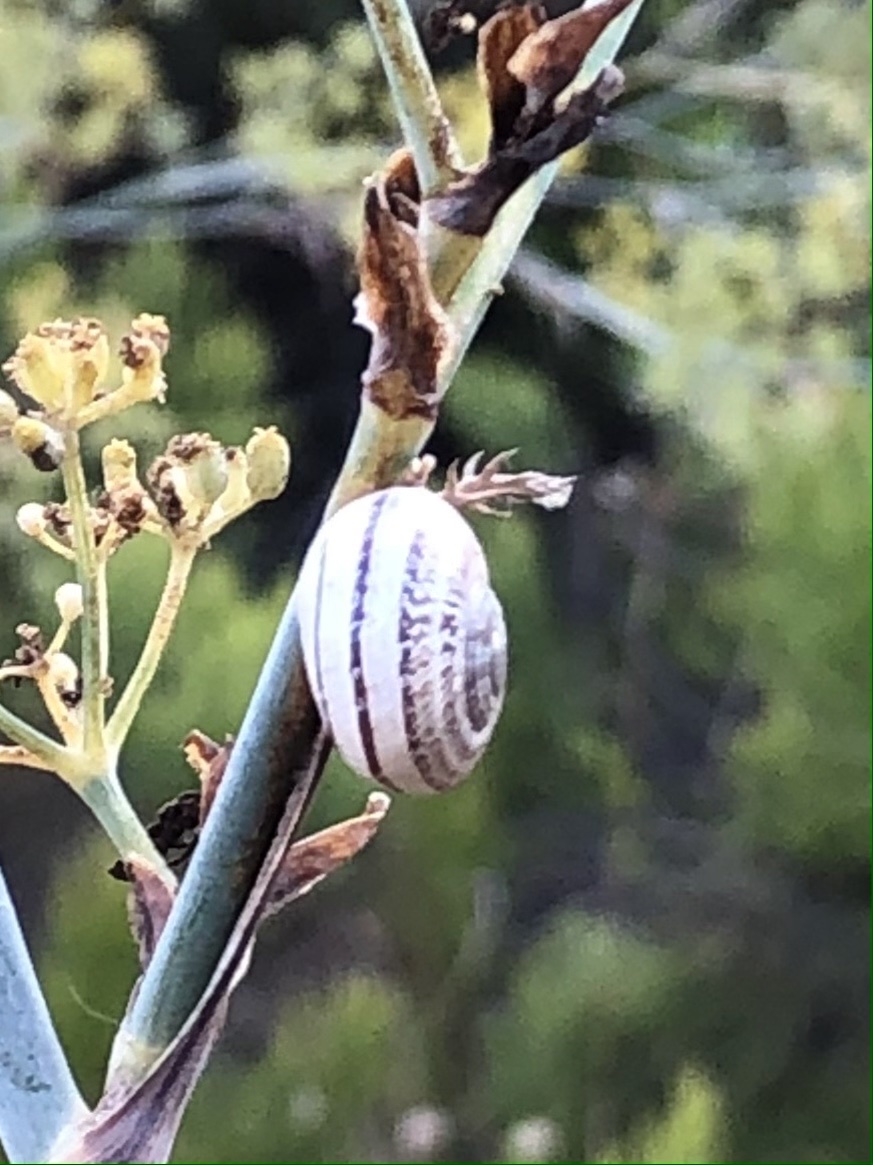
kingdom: Animalia
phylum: Mollusca
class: Gastropoda
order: Stylommatophora
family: Helicidae
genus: Otala
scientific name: Otala lactea
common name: Milk snail
